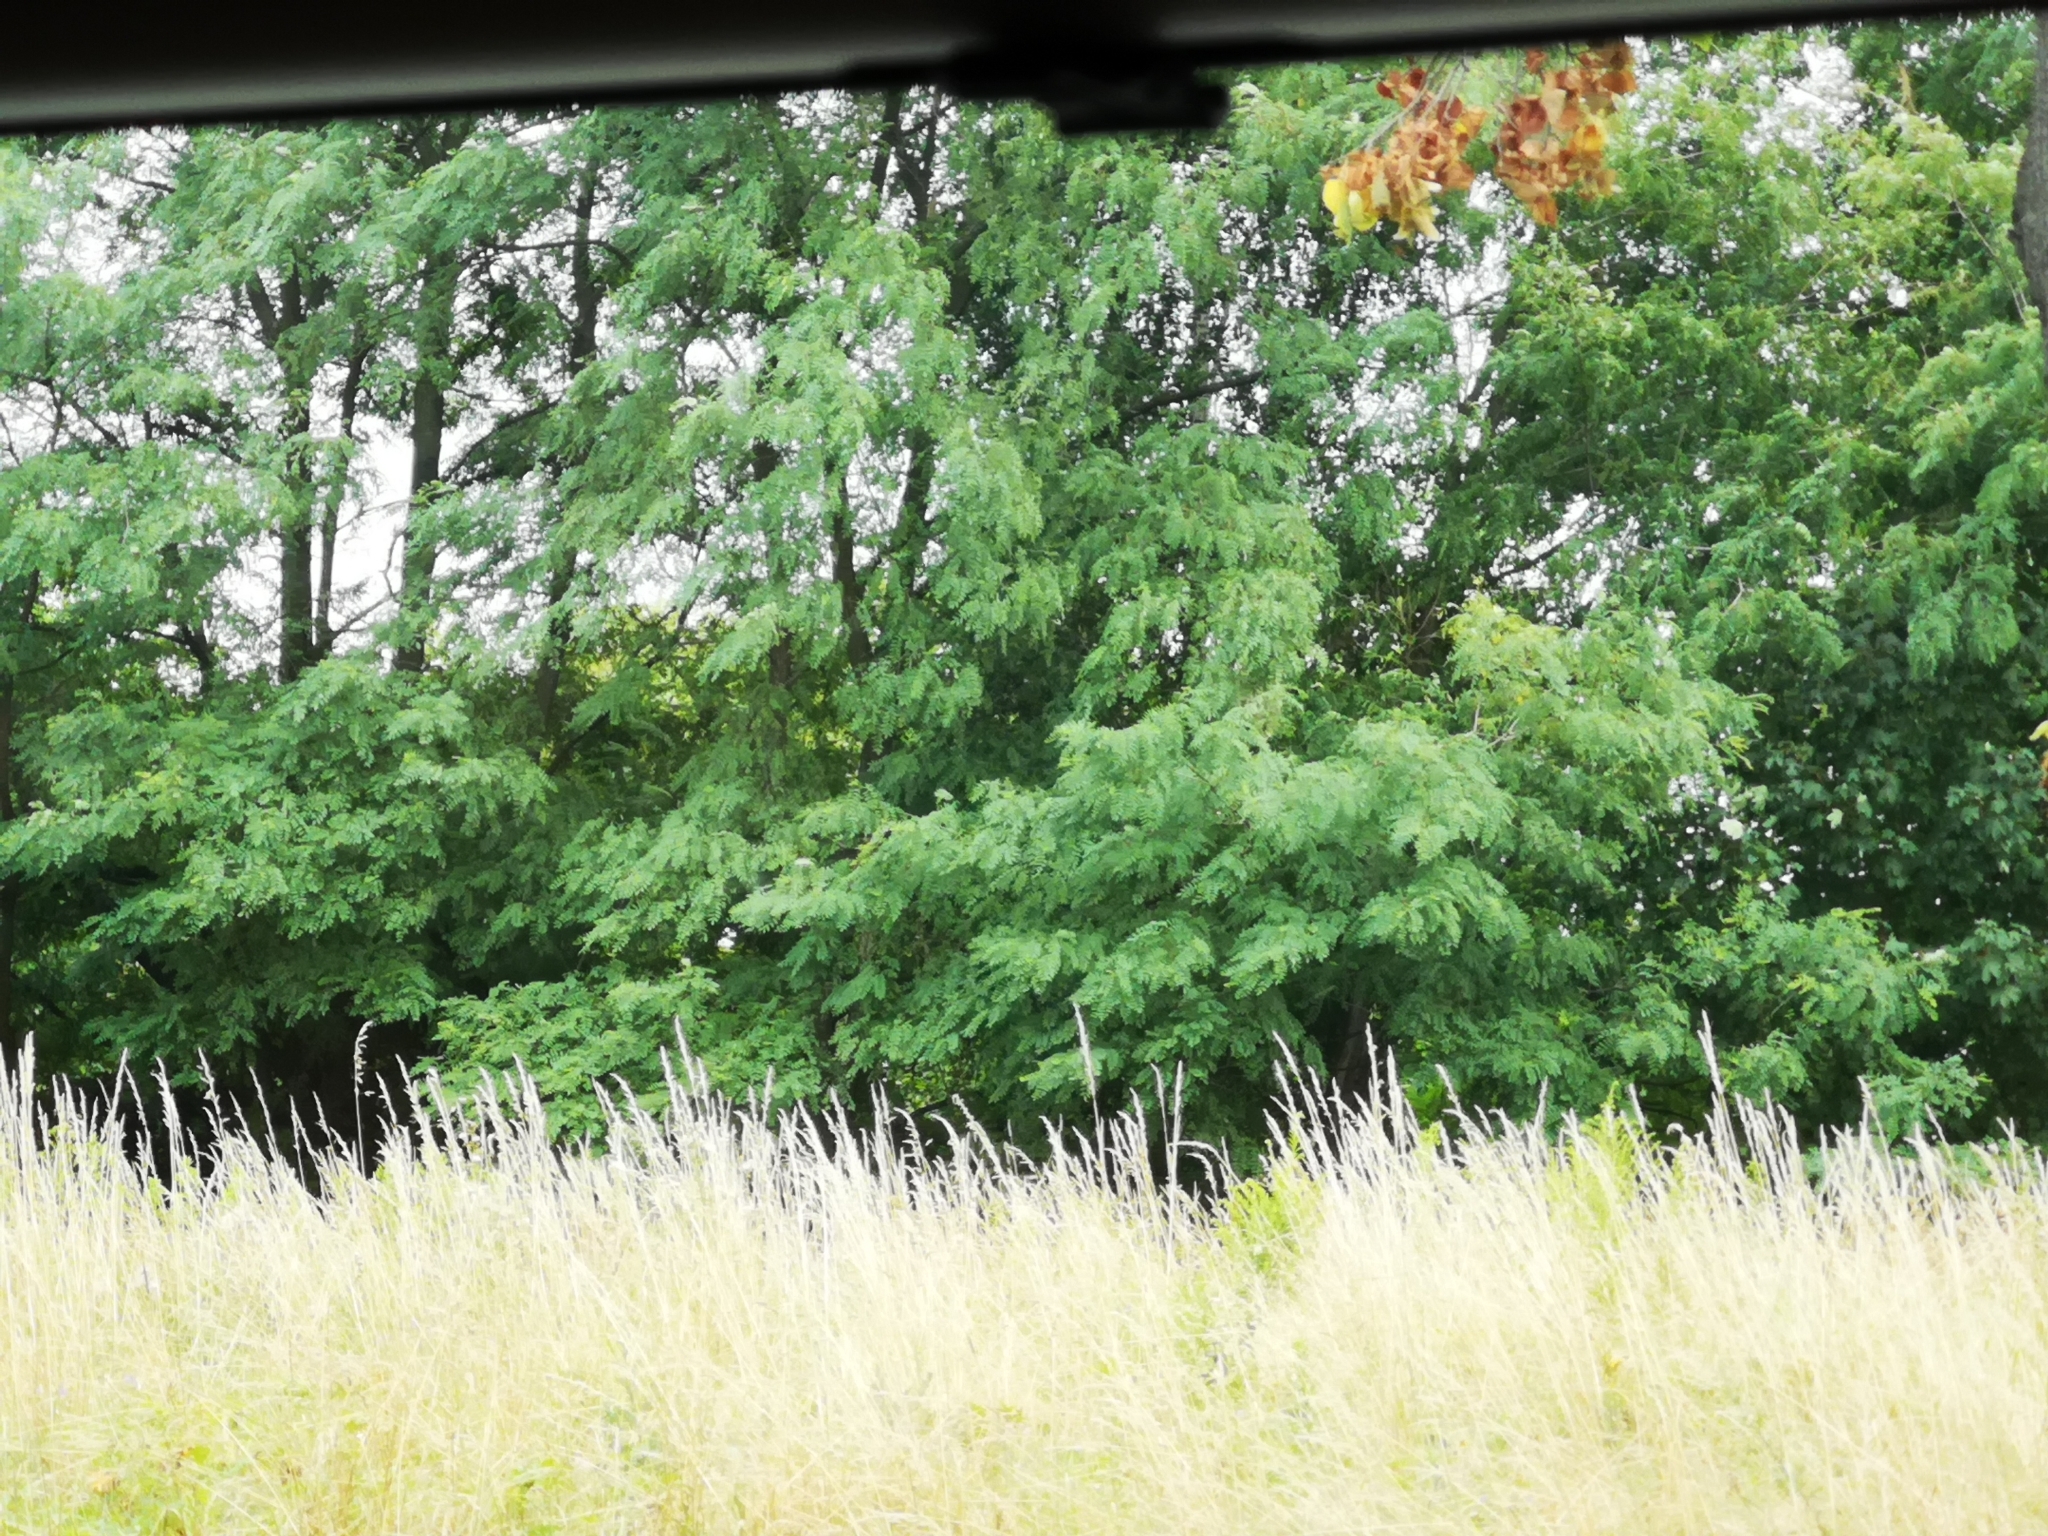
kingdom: Plantae
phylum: Tracheophyta
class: Magnoliopsida
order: Fabales
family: Fabaceae
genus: Robinia
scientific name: Robinia pseudoacacia
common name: Black locust
